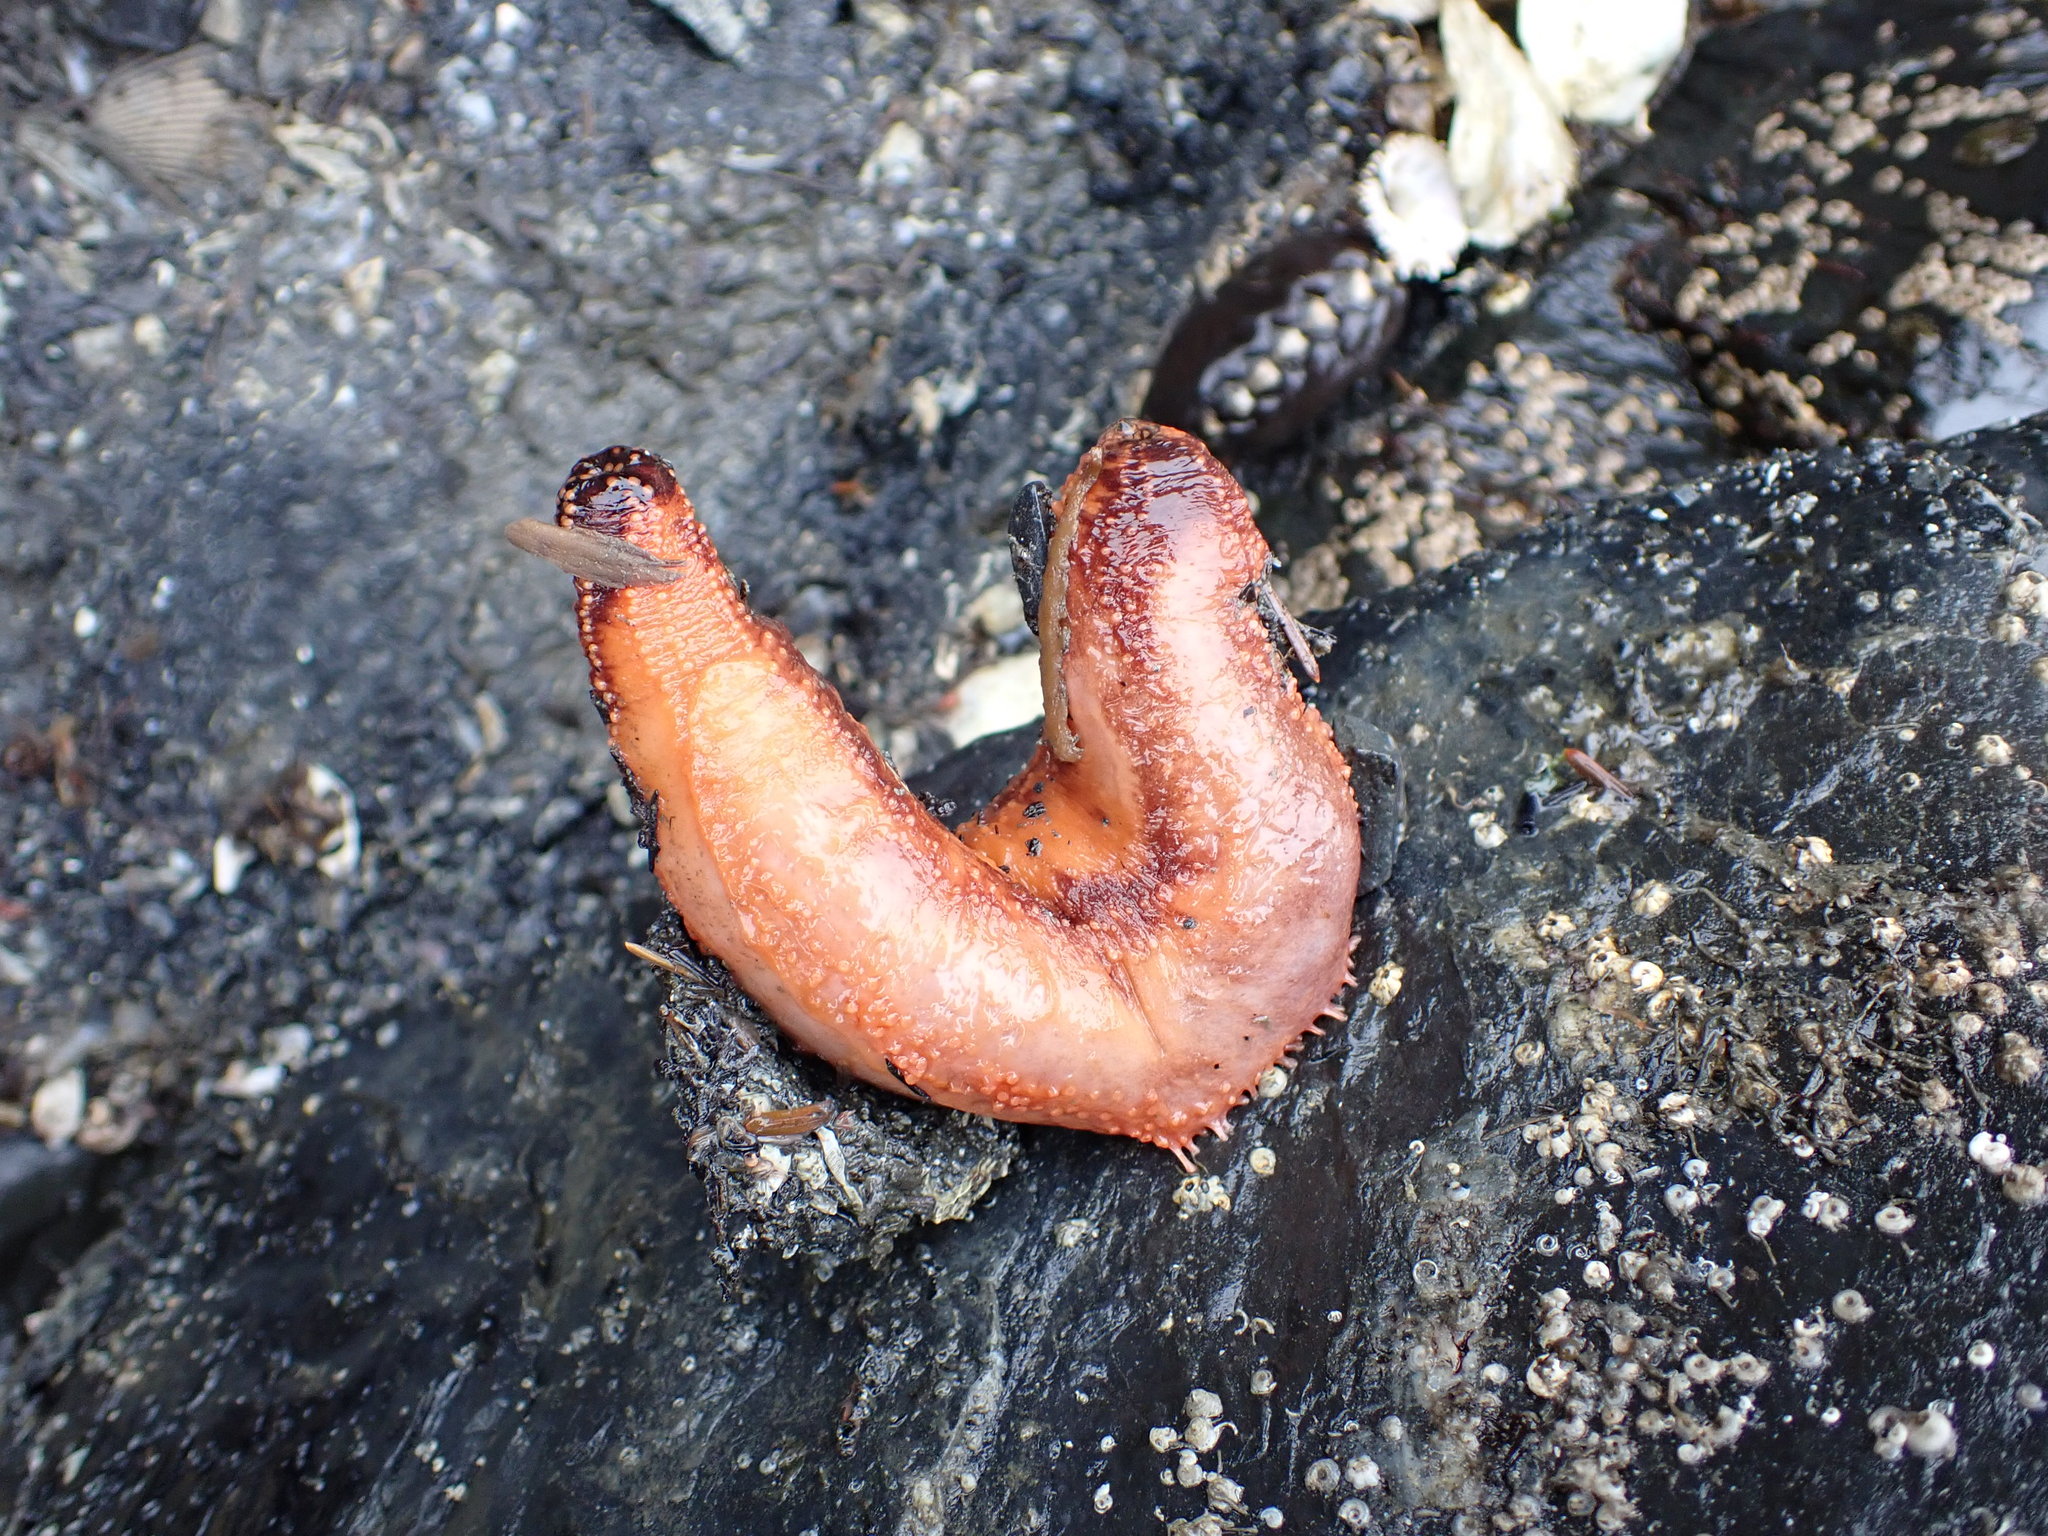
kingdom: Animalia
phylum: Echinodermata
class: Holothuroidea
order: Dendrochirotida
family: Cucumariidae
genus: Cucumaria
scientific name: Cucumaria miniata
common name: Orange sea cucumber
